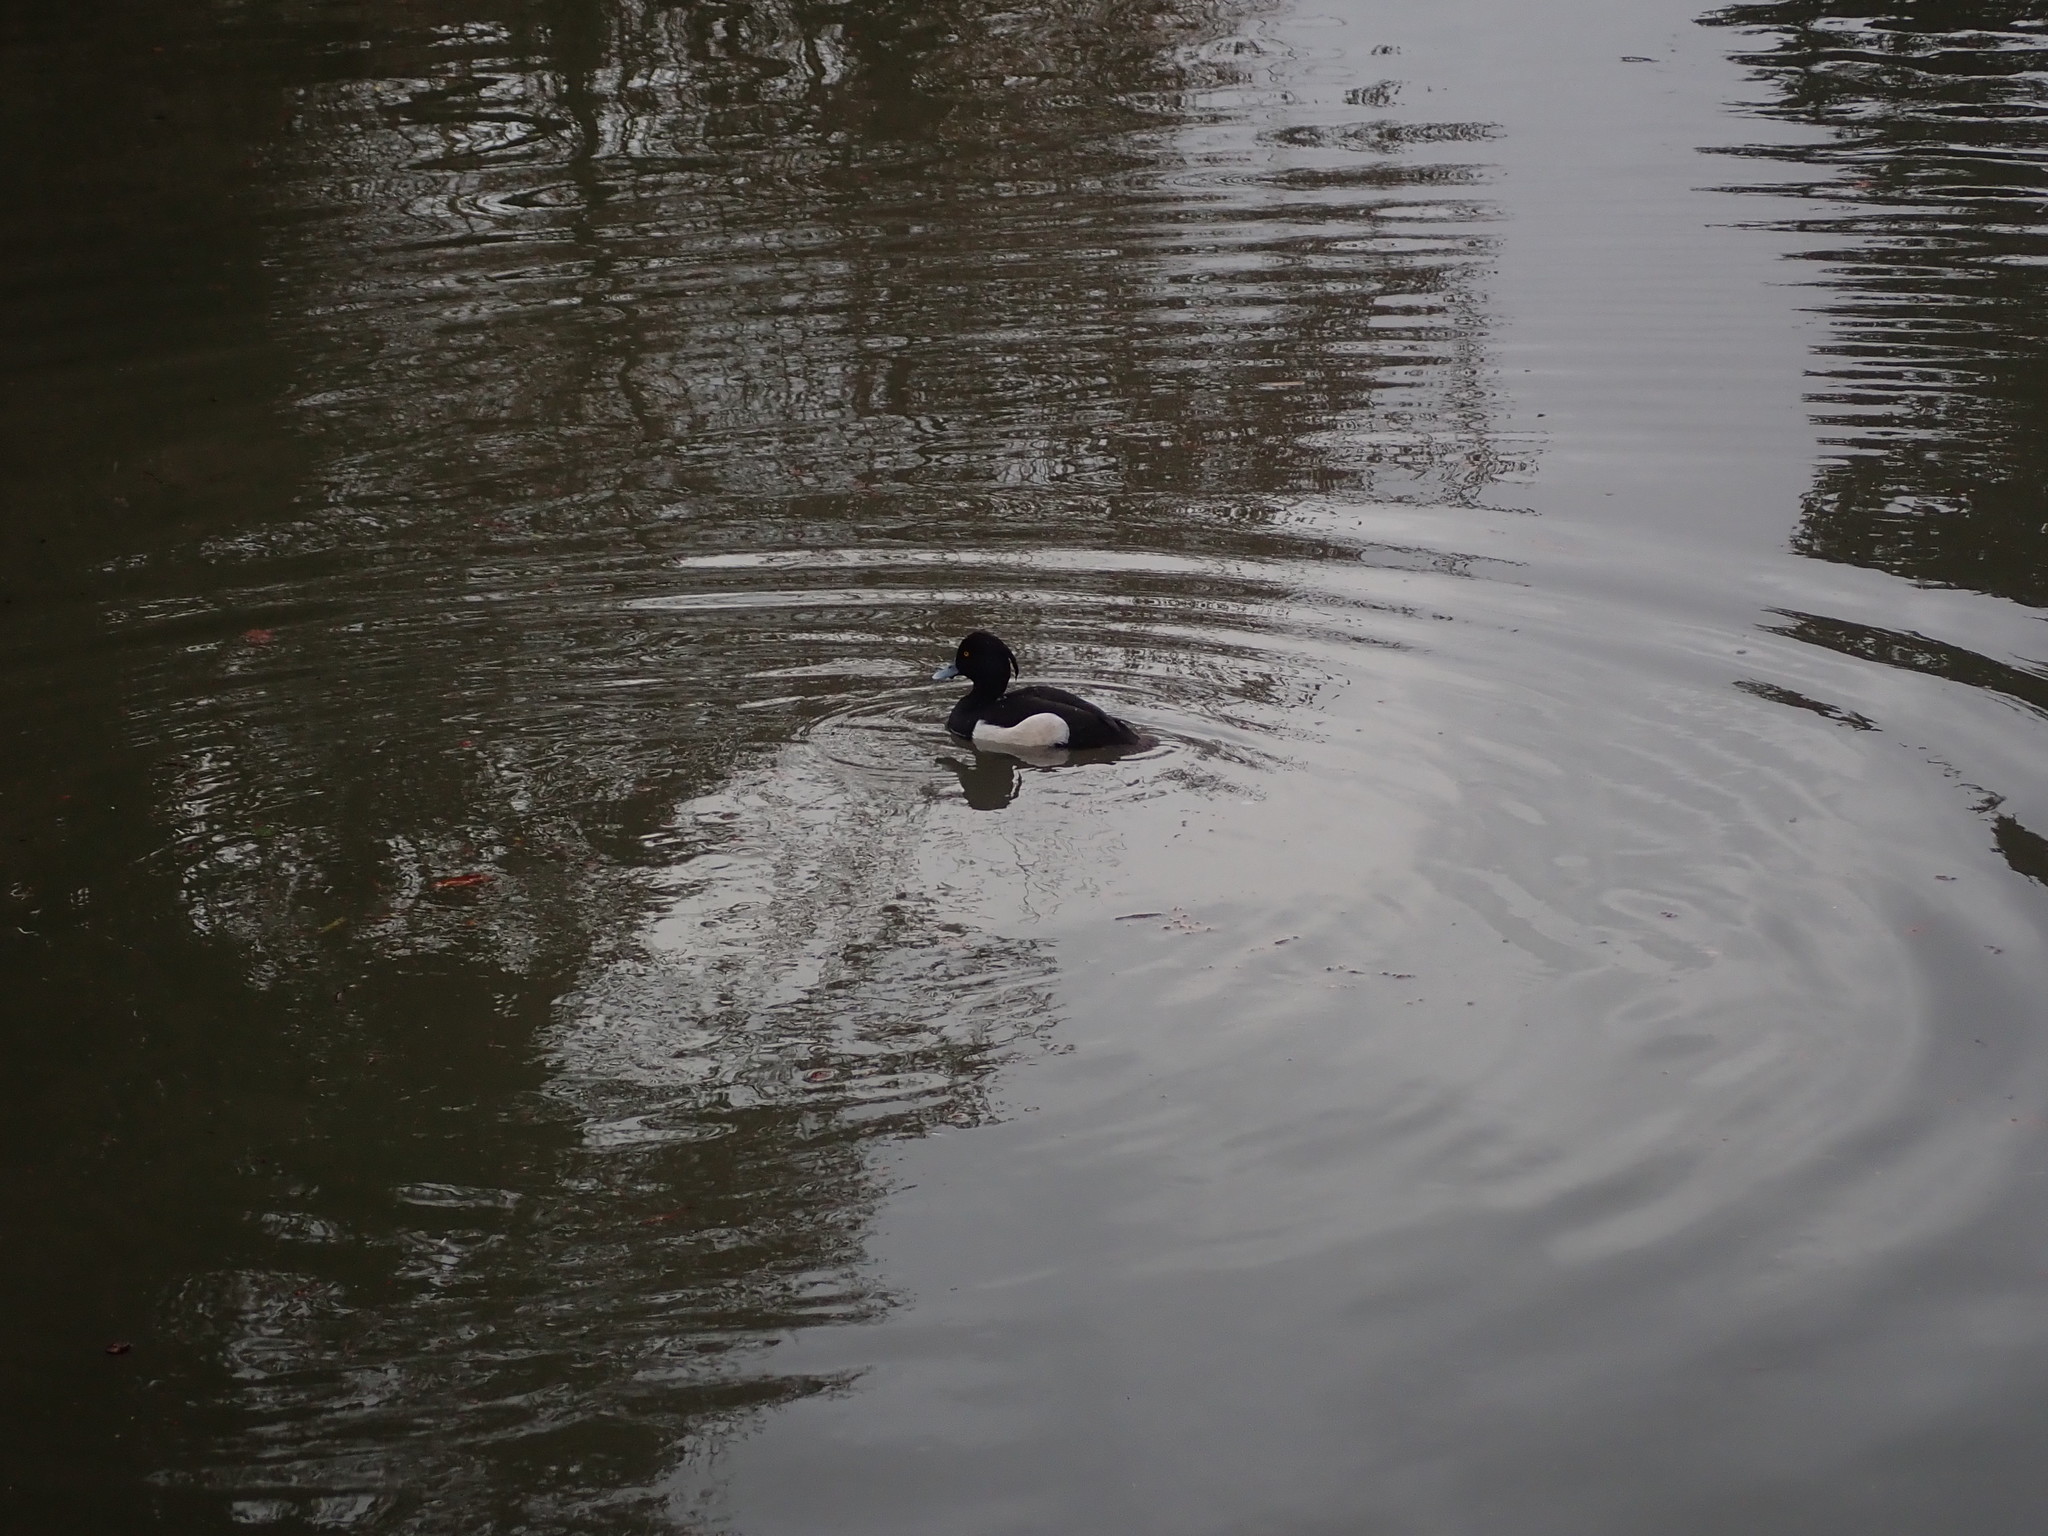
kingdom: Animalia
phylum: Chordata
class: Aves
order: Anseriformes
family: Anatidae
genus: Aythya
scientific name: Aythya fuligula
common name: Tufted duck
